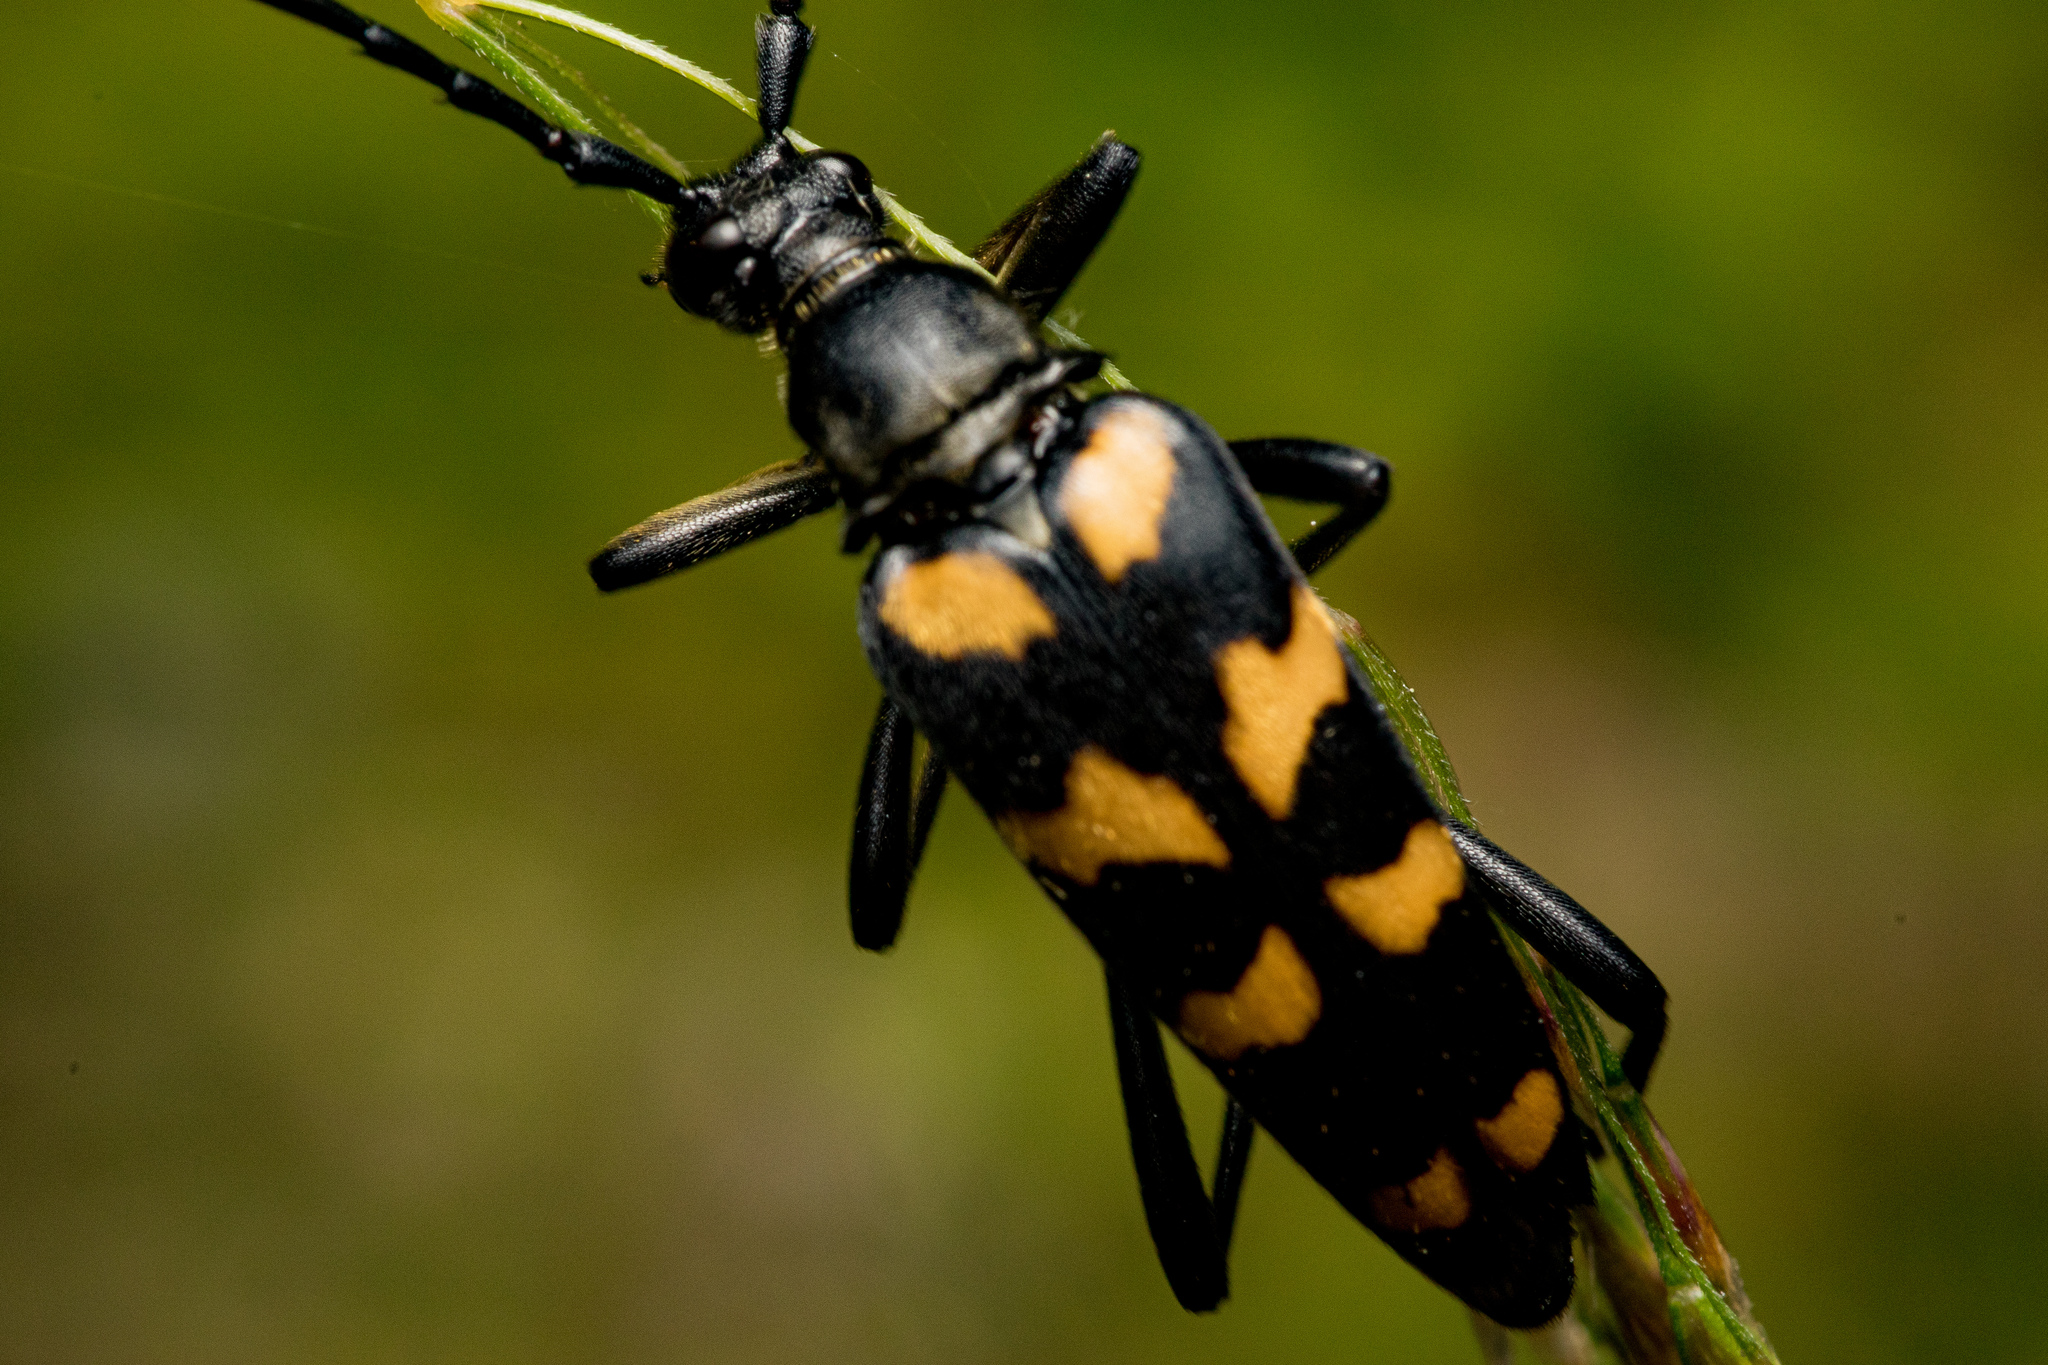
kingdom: Animalia
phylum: Arthropoda
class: Insecta
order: Coleoptera
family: Cerambycidae
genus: Leptura
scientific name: Leptura quadrifasciata
